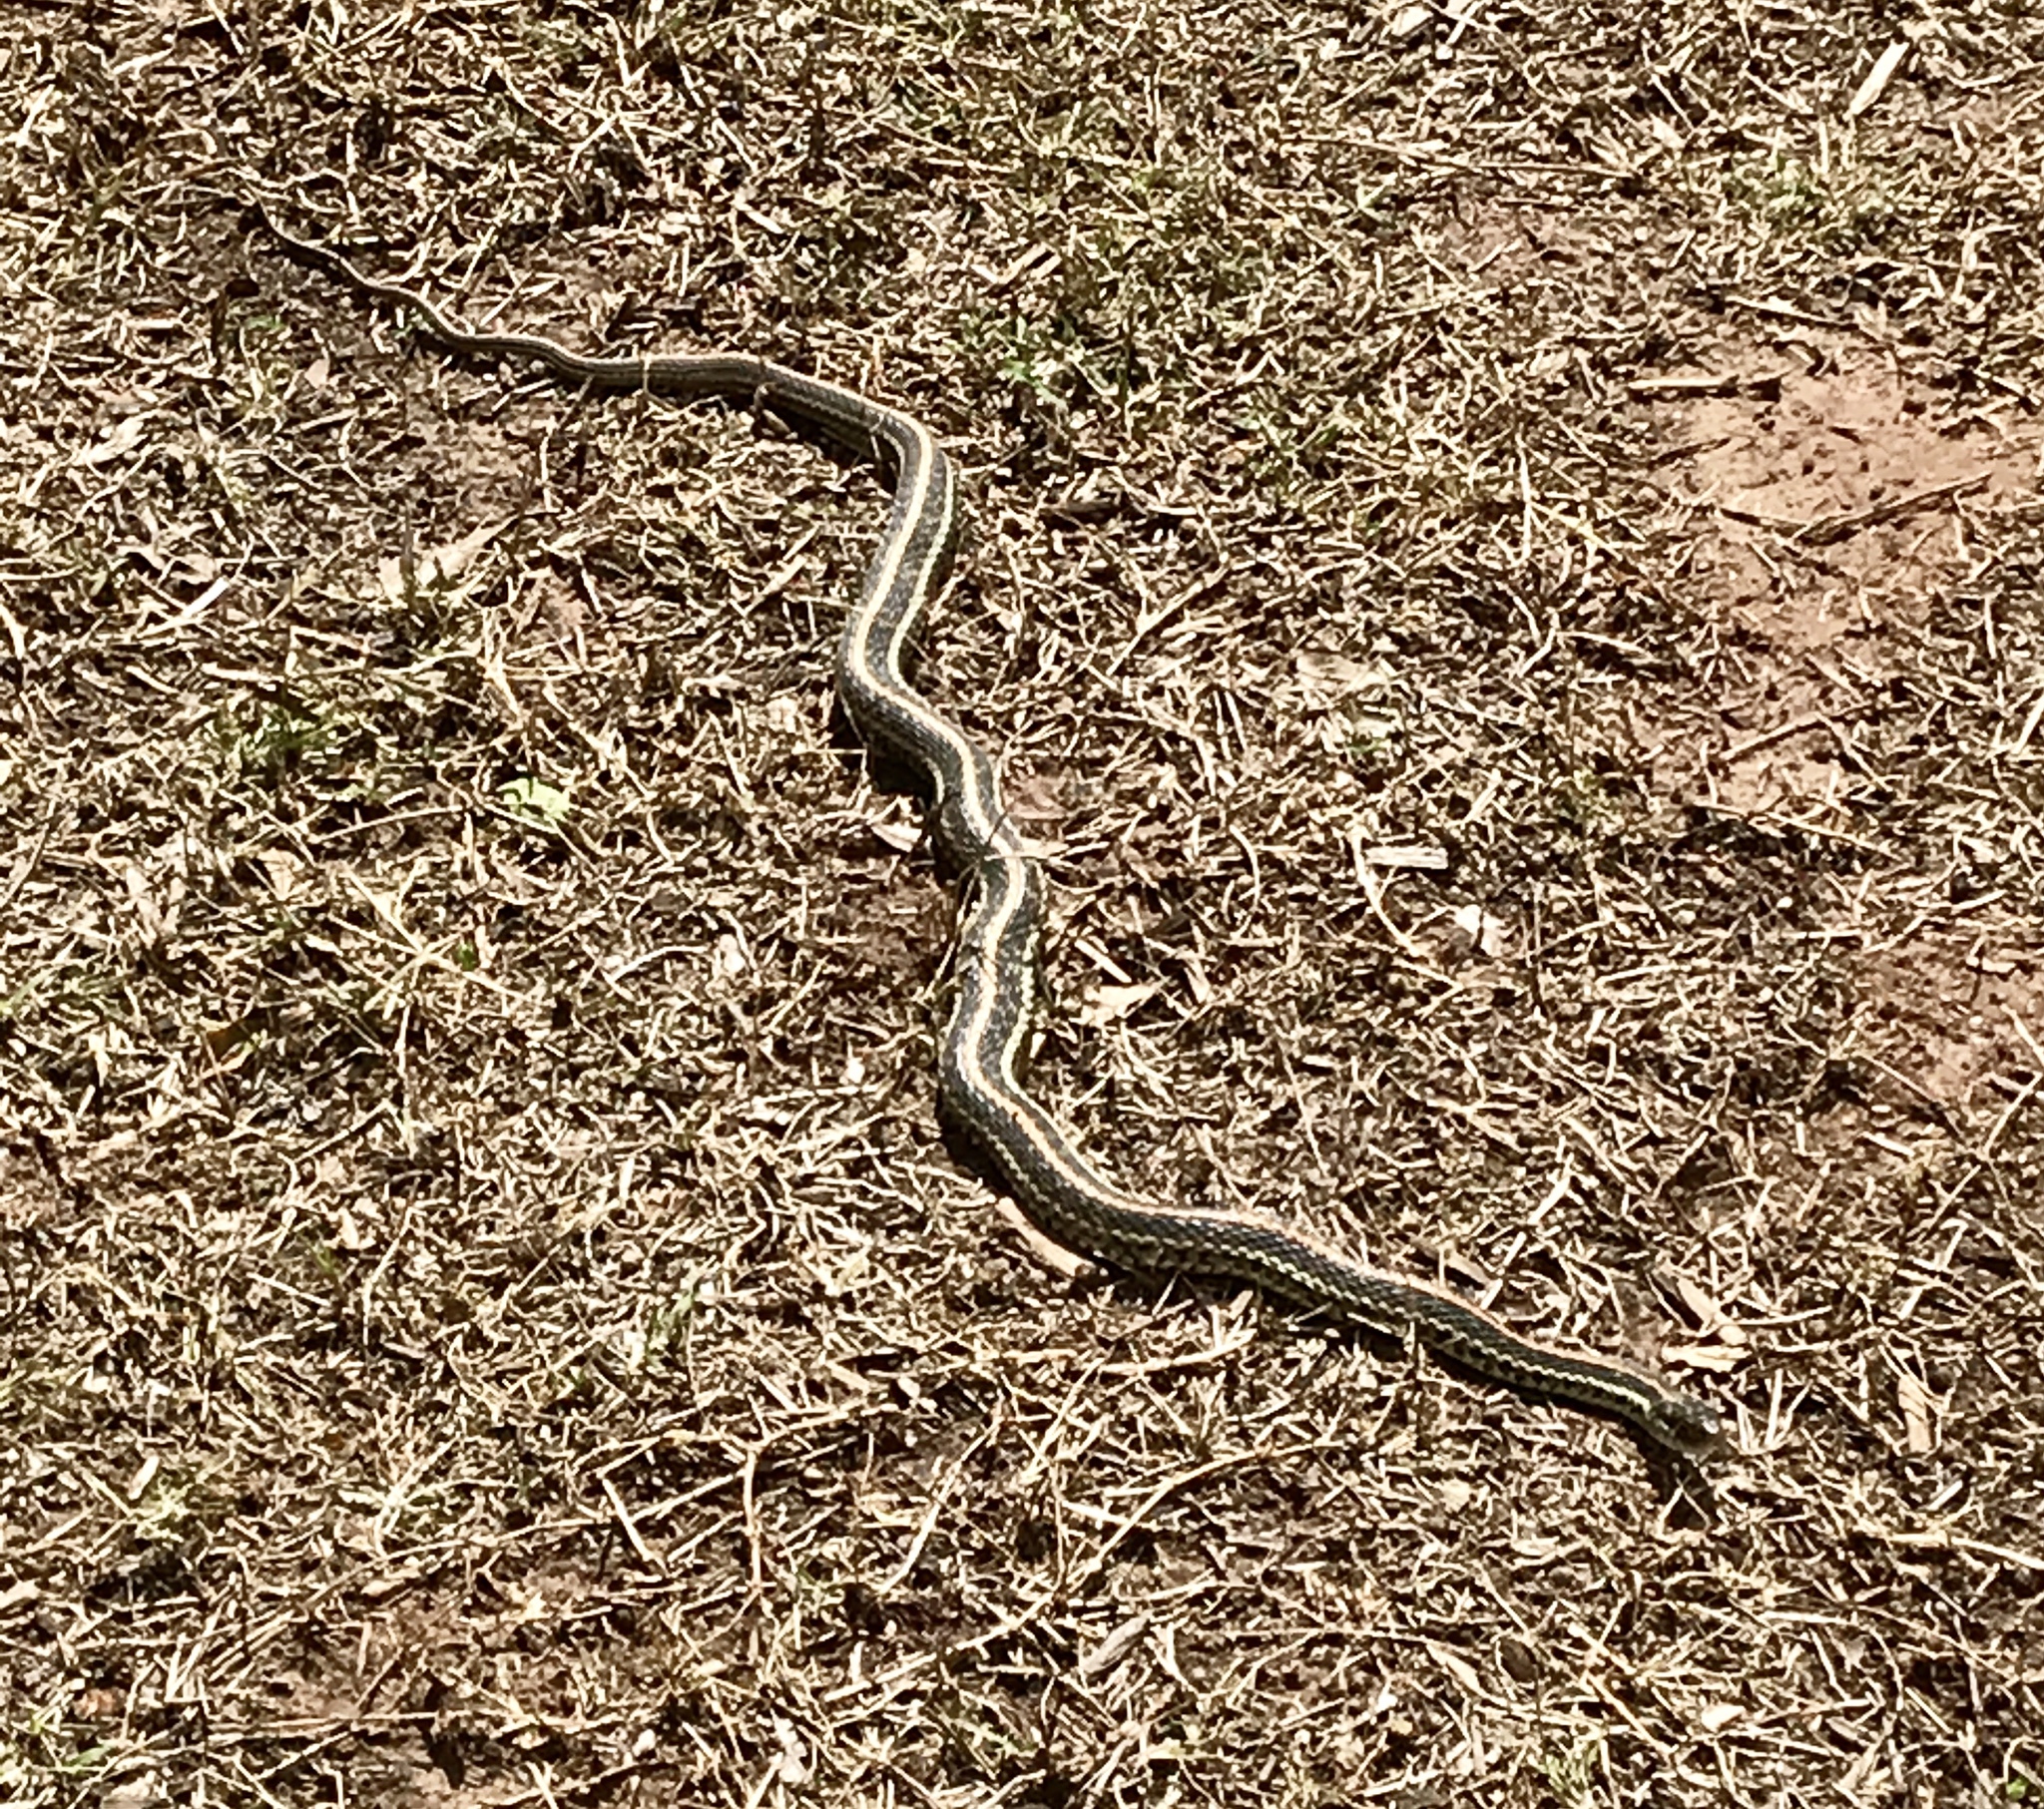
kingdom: Animalia
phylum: Chordata
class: Squamata
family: Colubridae
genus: Thamnophis
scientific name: Thamnophis sirtalis
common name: Common garter snake
